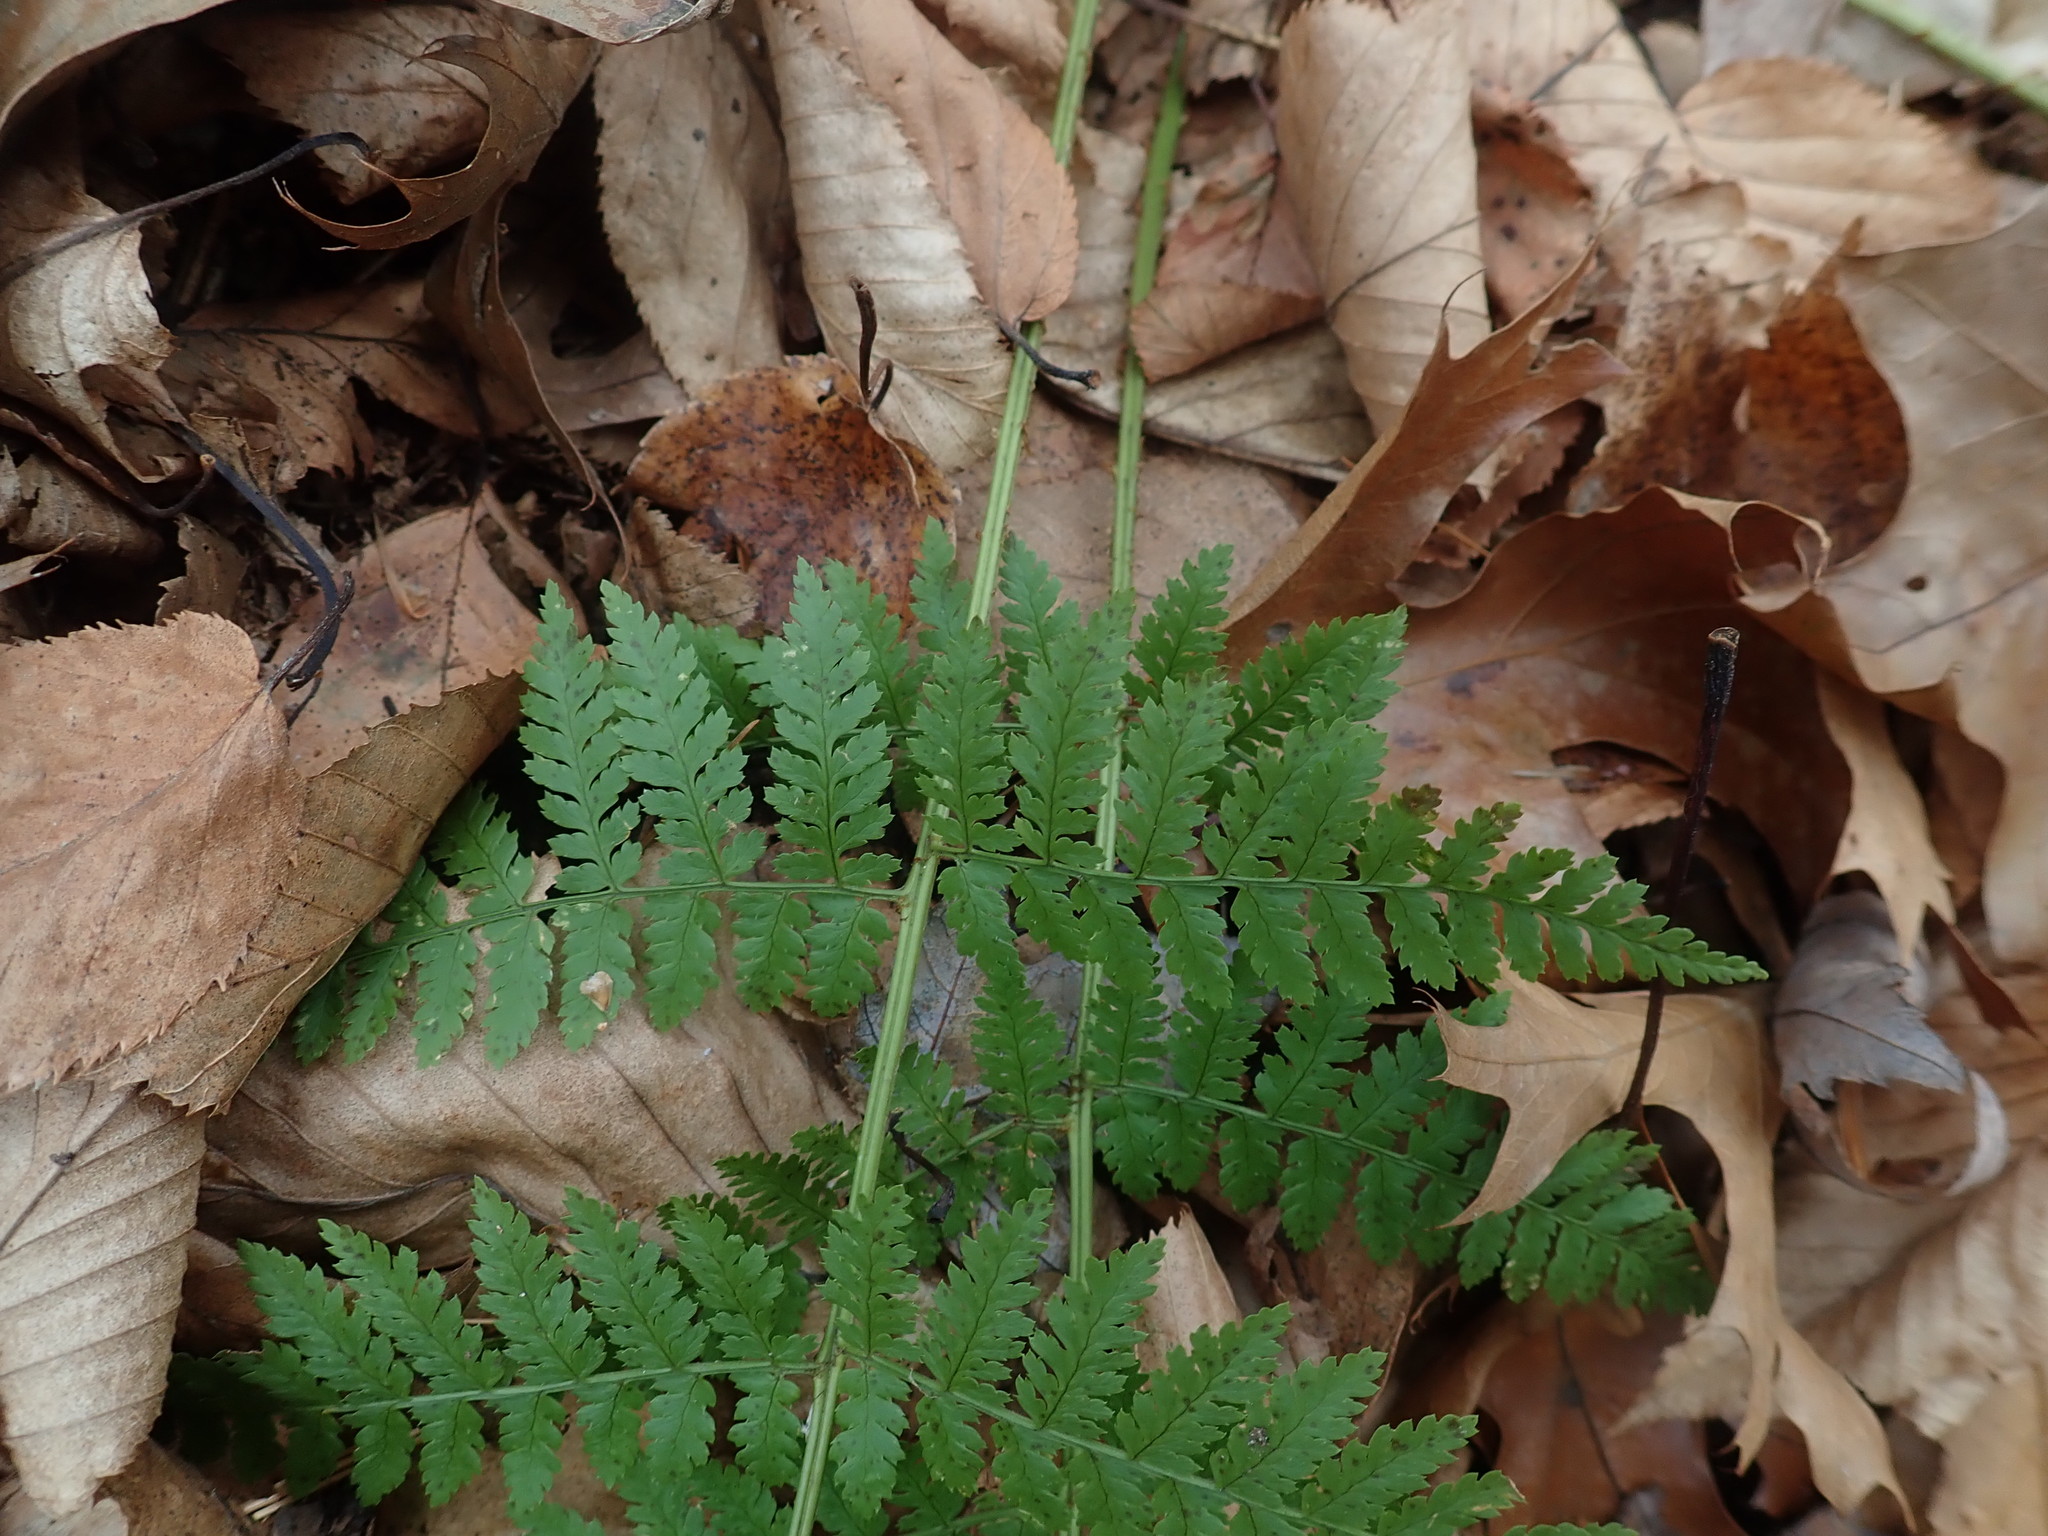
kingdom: Plantae
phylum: Tracheophyta
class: Polypodiopsida
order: Polypodiales
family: Dryopteridaceae
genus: Dryopteris
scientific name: Dryopteris intermedia
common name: Evergreen wood fern
